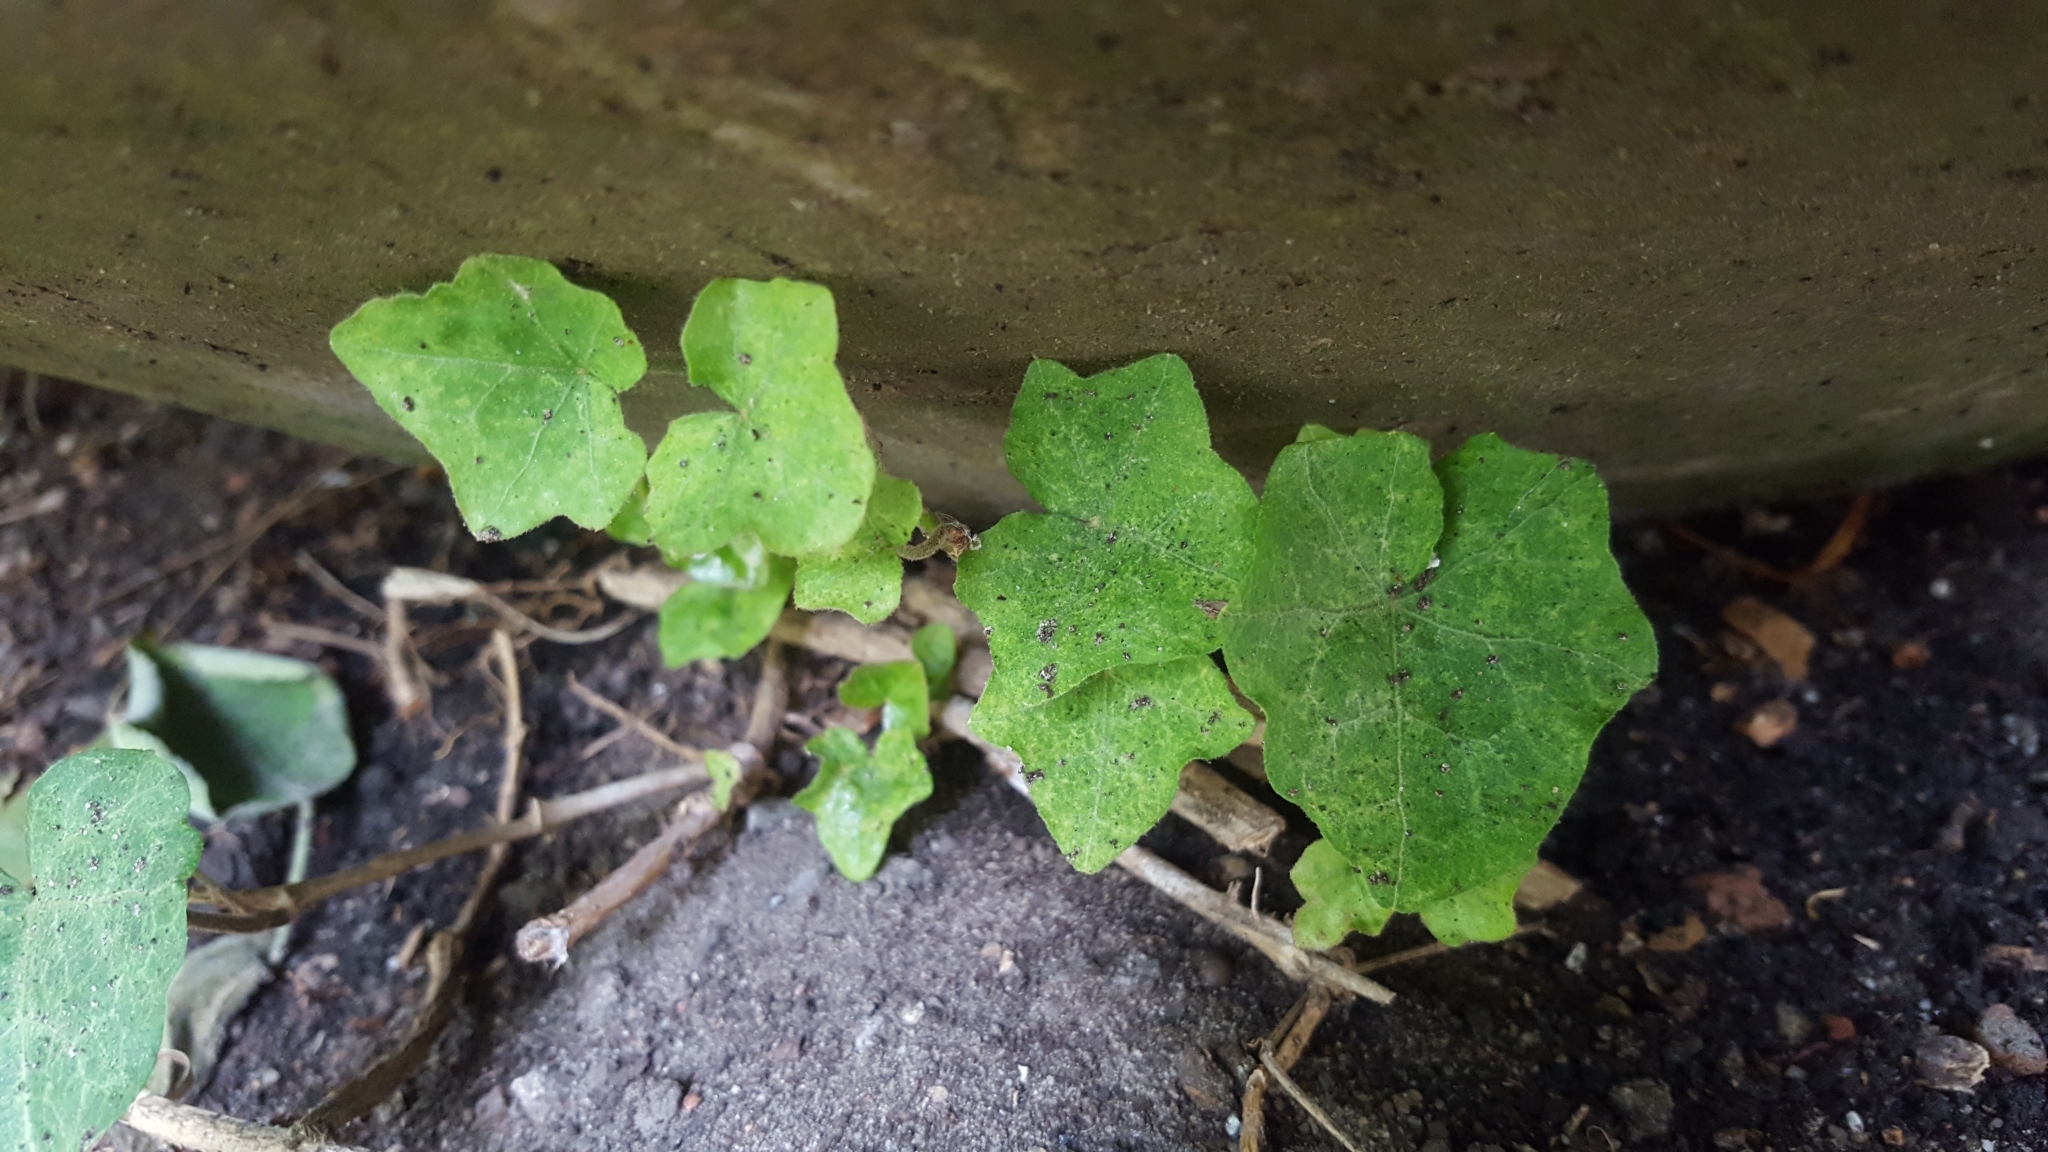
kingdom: Plantae
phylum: Tracheophyta
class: Magnoliopsida
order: Apiales
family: Araliaceae
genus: Hedera
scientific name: Hedera helix
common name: Ivy
